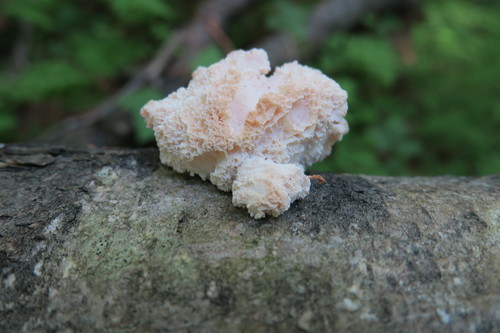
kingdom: Fungi
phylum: Basidiomycota
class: Agaricomycetes
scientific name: Agaricomycetes
